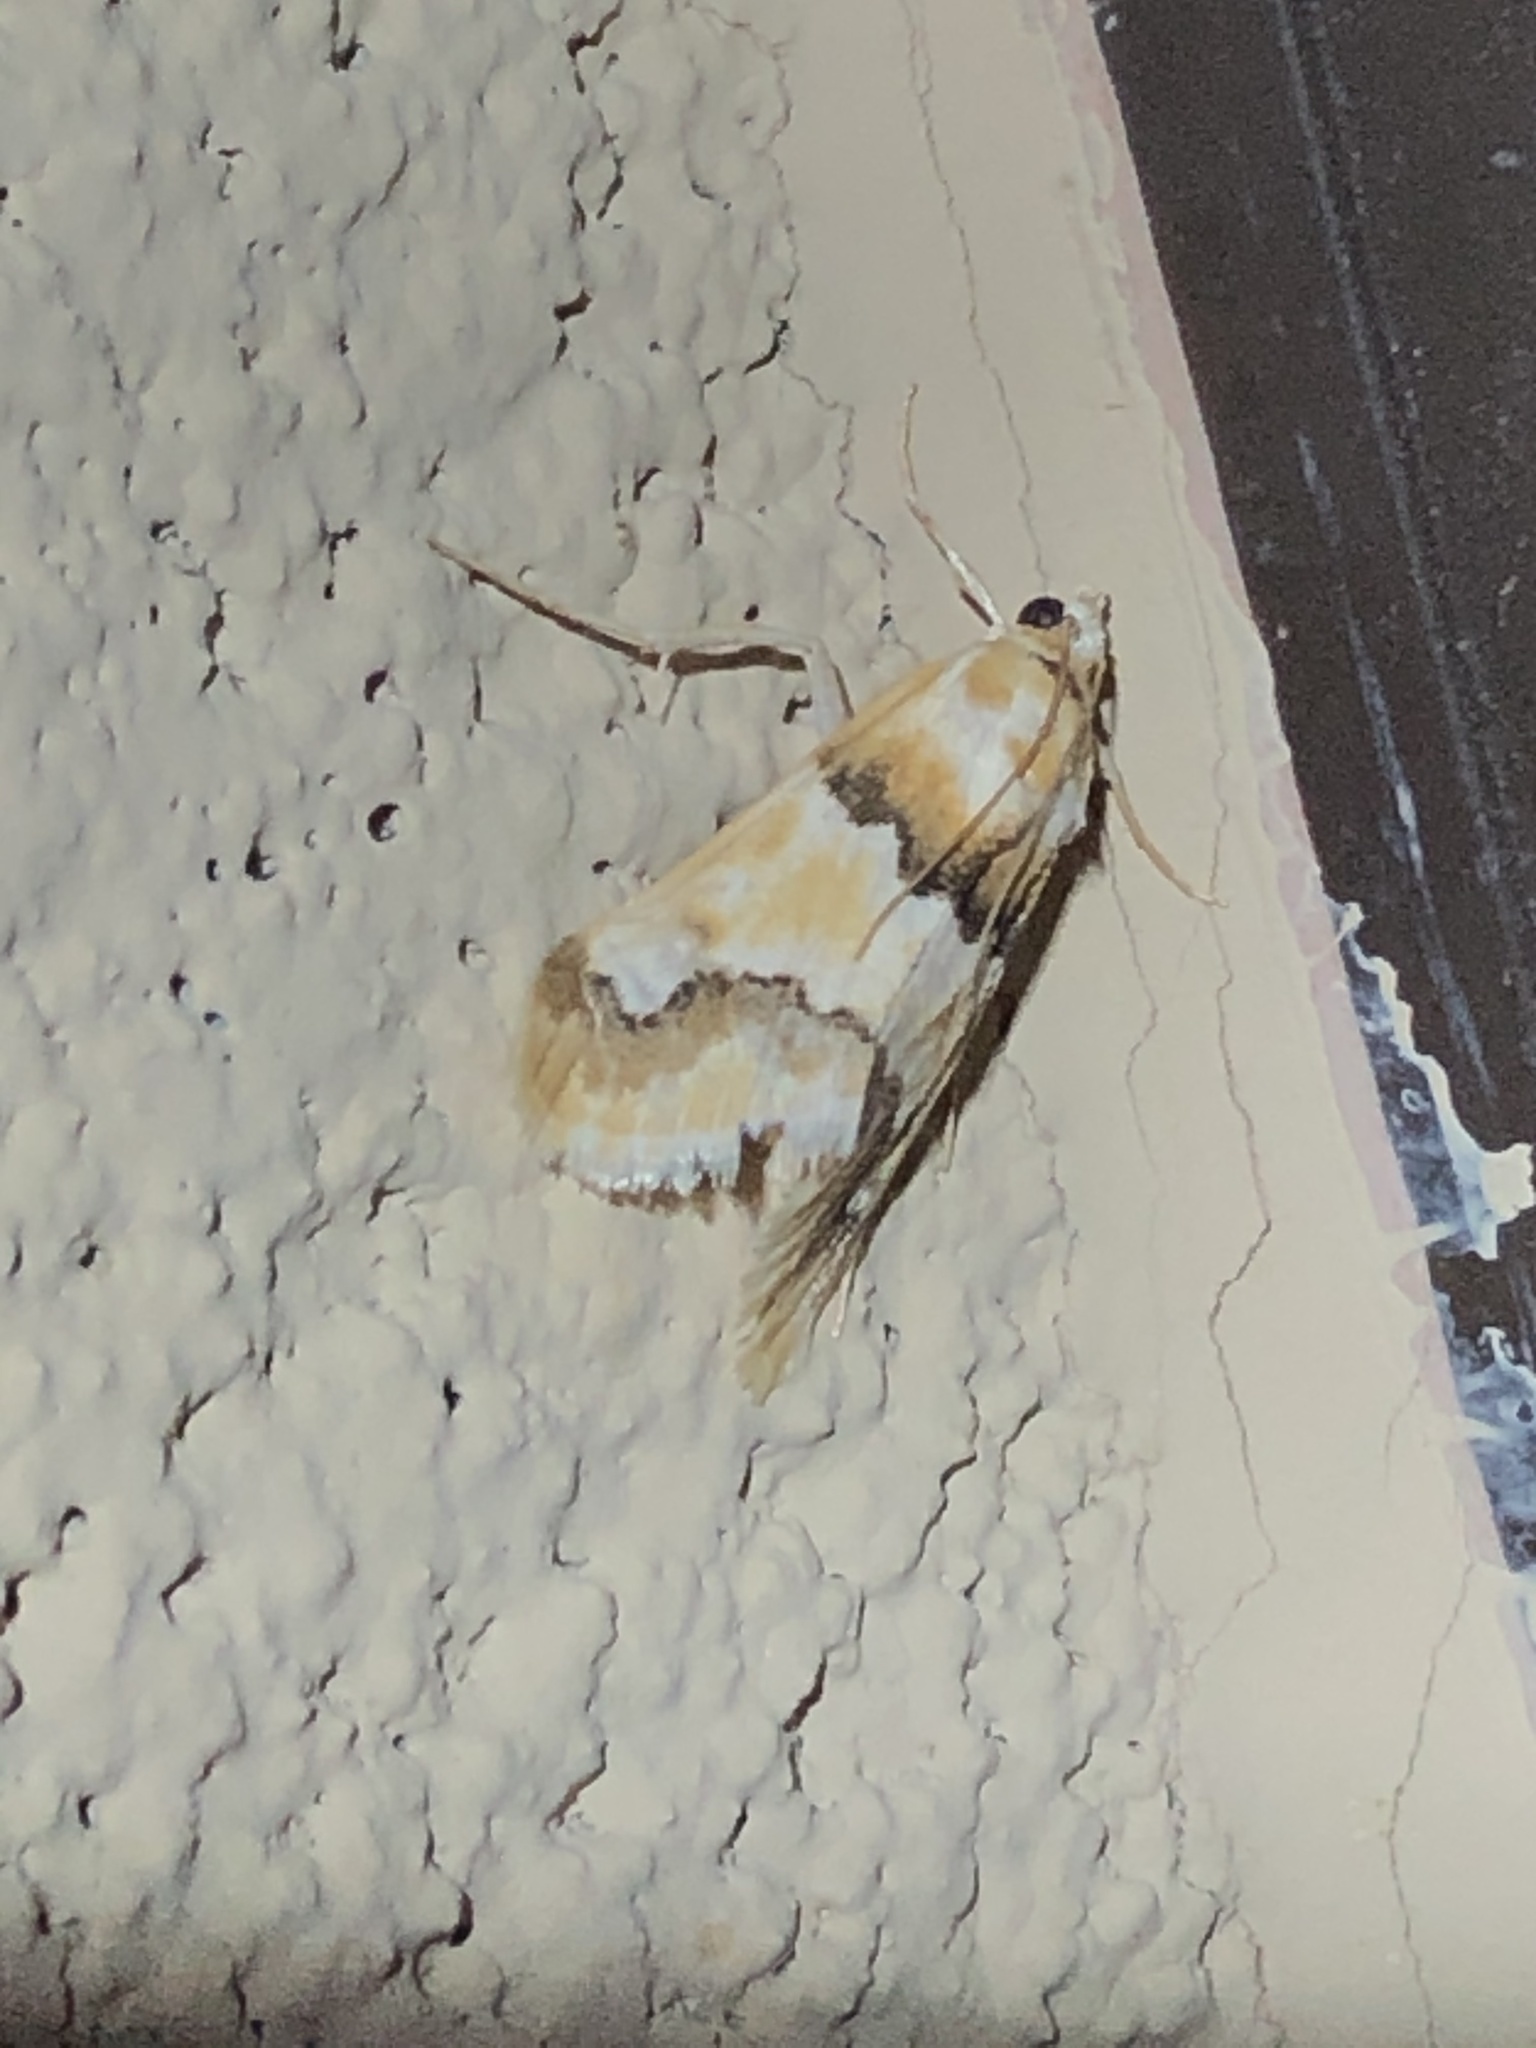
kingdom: Animalia
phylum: Arthropoda
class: Insecta
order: Lepidoptera
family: Crambidae
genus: Pseudoschinia
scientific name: Pseudoschinia elautalis
